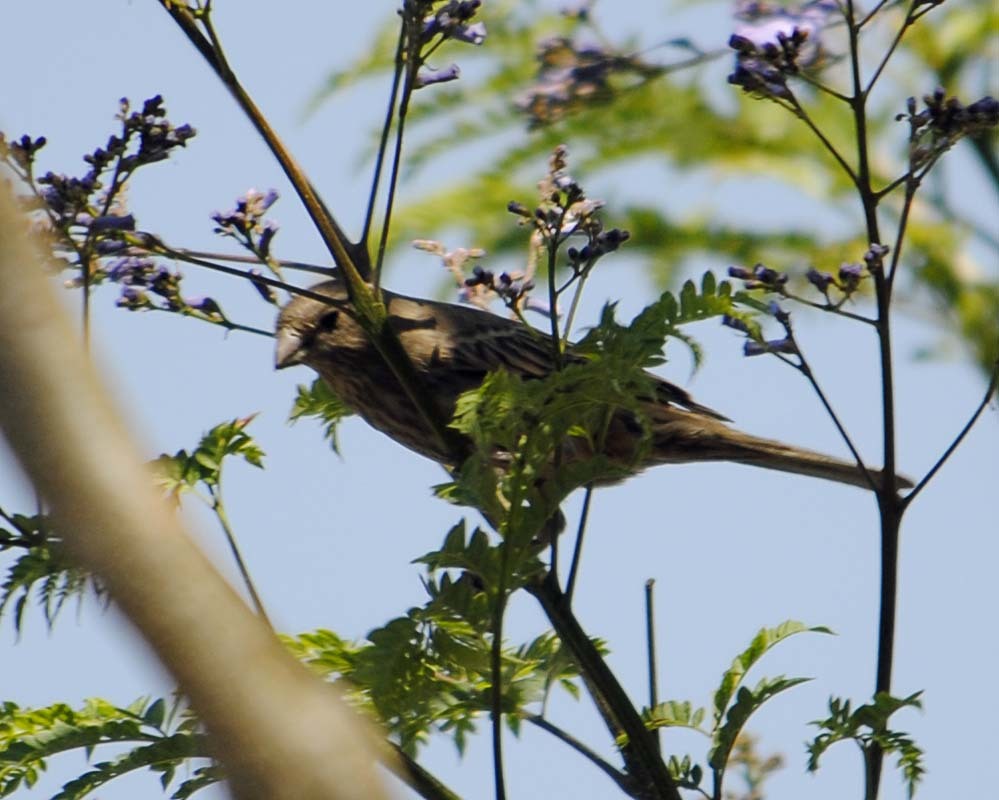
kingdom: Animalia
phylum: Chordata
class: Aves
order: Passeriformes
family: Fringillidae
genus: Haemorhous
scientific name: Haemorhous mexicanus
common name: House finch
